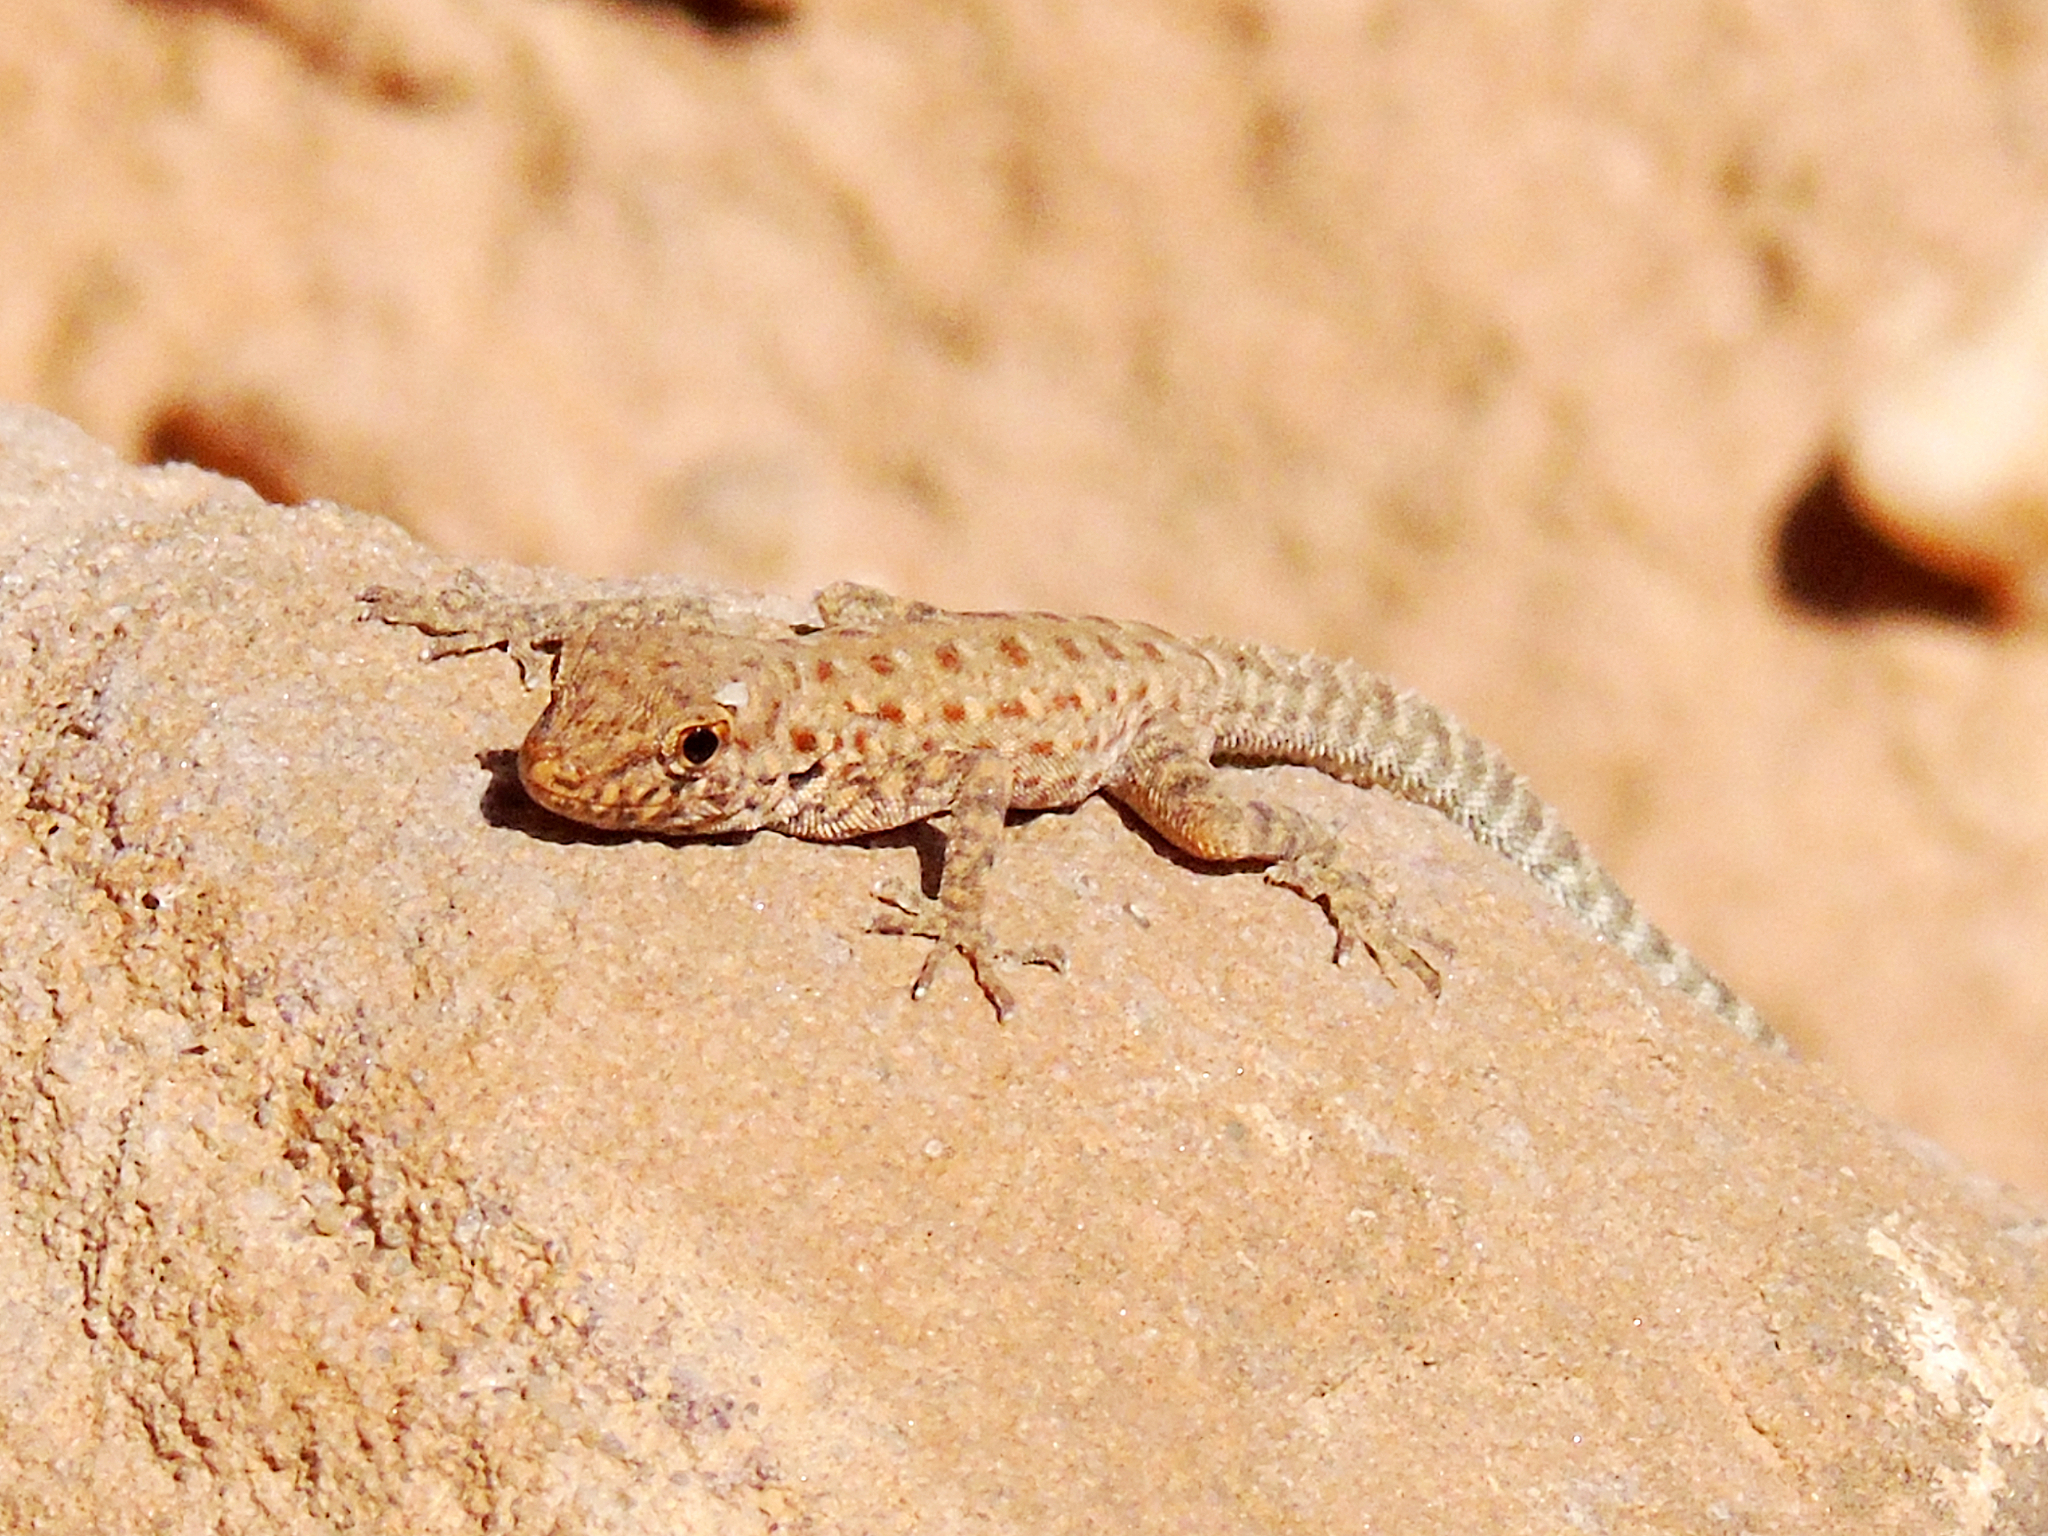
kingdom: Animalia
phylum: Chordata
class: Squamata
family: Sphaerodactylidae
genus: Pristurus
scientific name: Pristurus rupestris
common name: Blanford’s semaphore gecko
